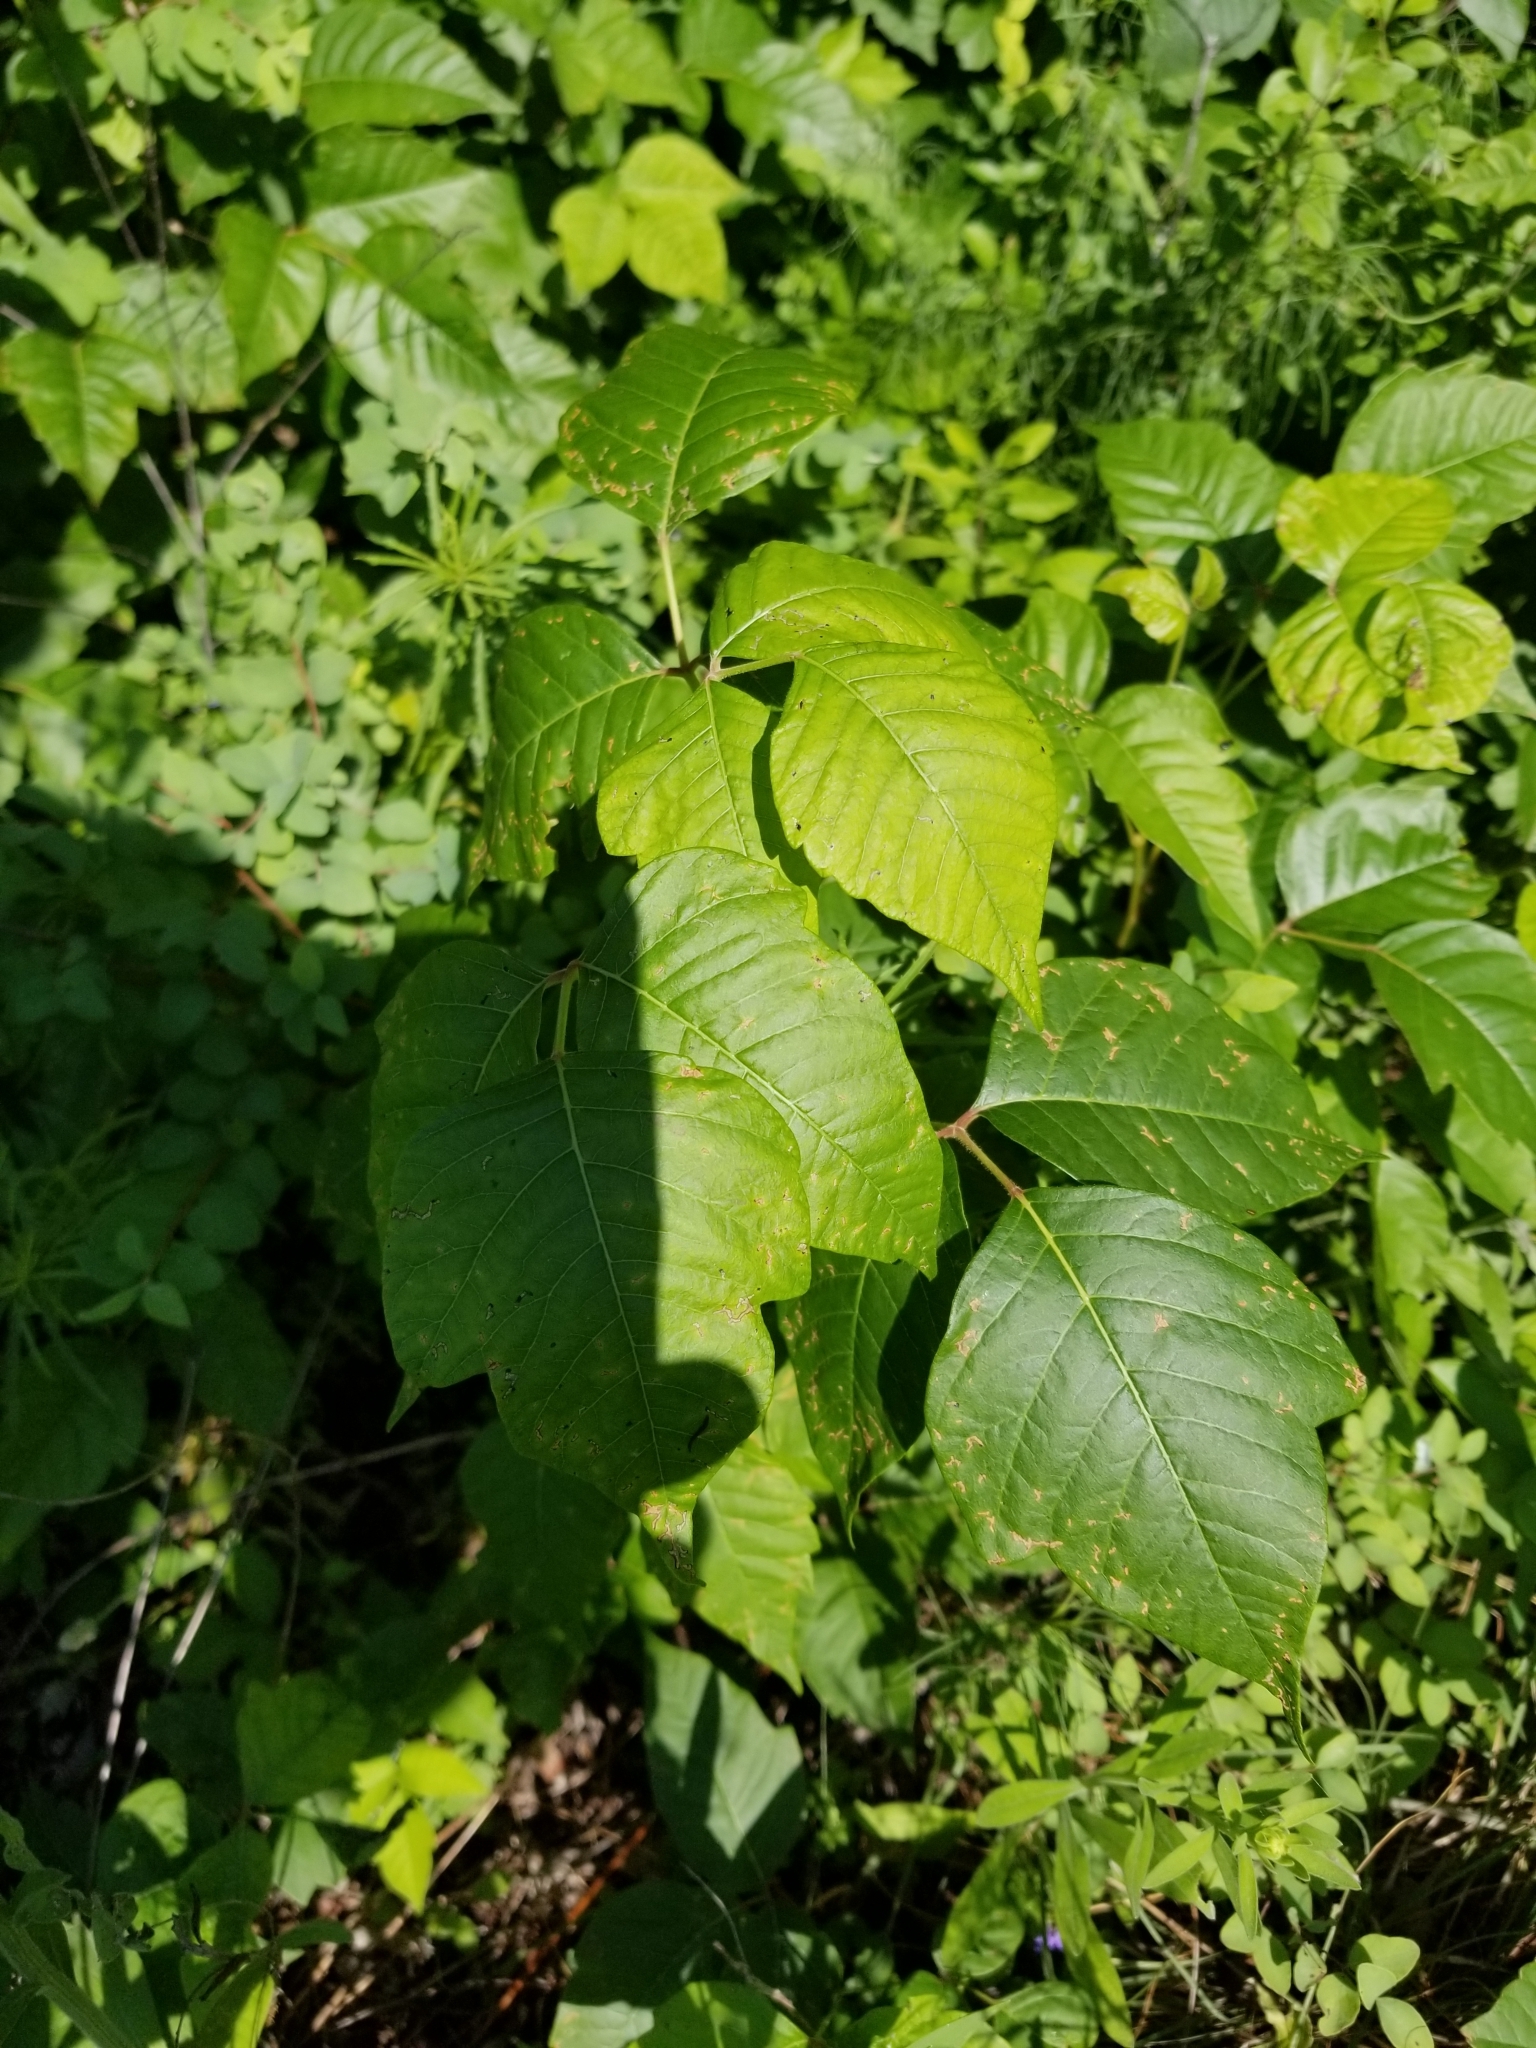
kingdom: Plantae
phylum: Tracheophyta
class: Magnoliopsida
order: Sapindales
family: Anacardiaceae
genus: Toxicodendron
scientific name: Toxicodendron radicans
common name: Poison ivy
